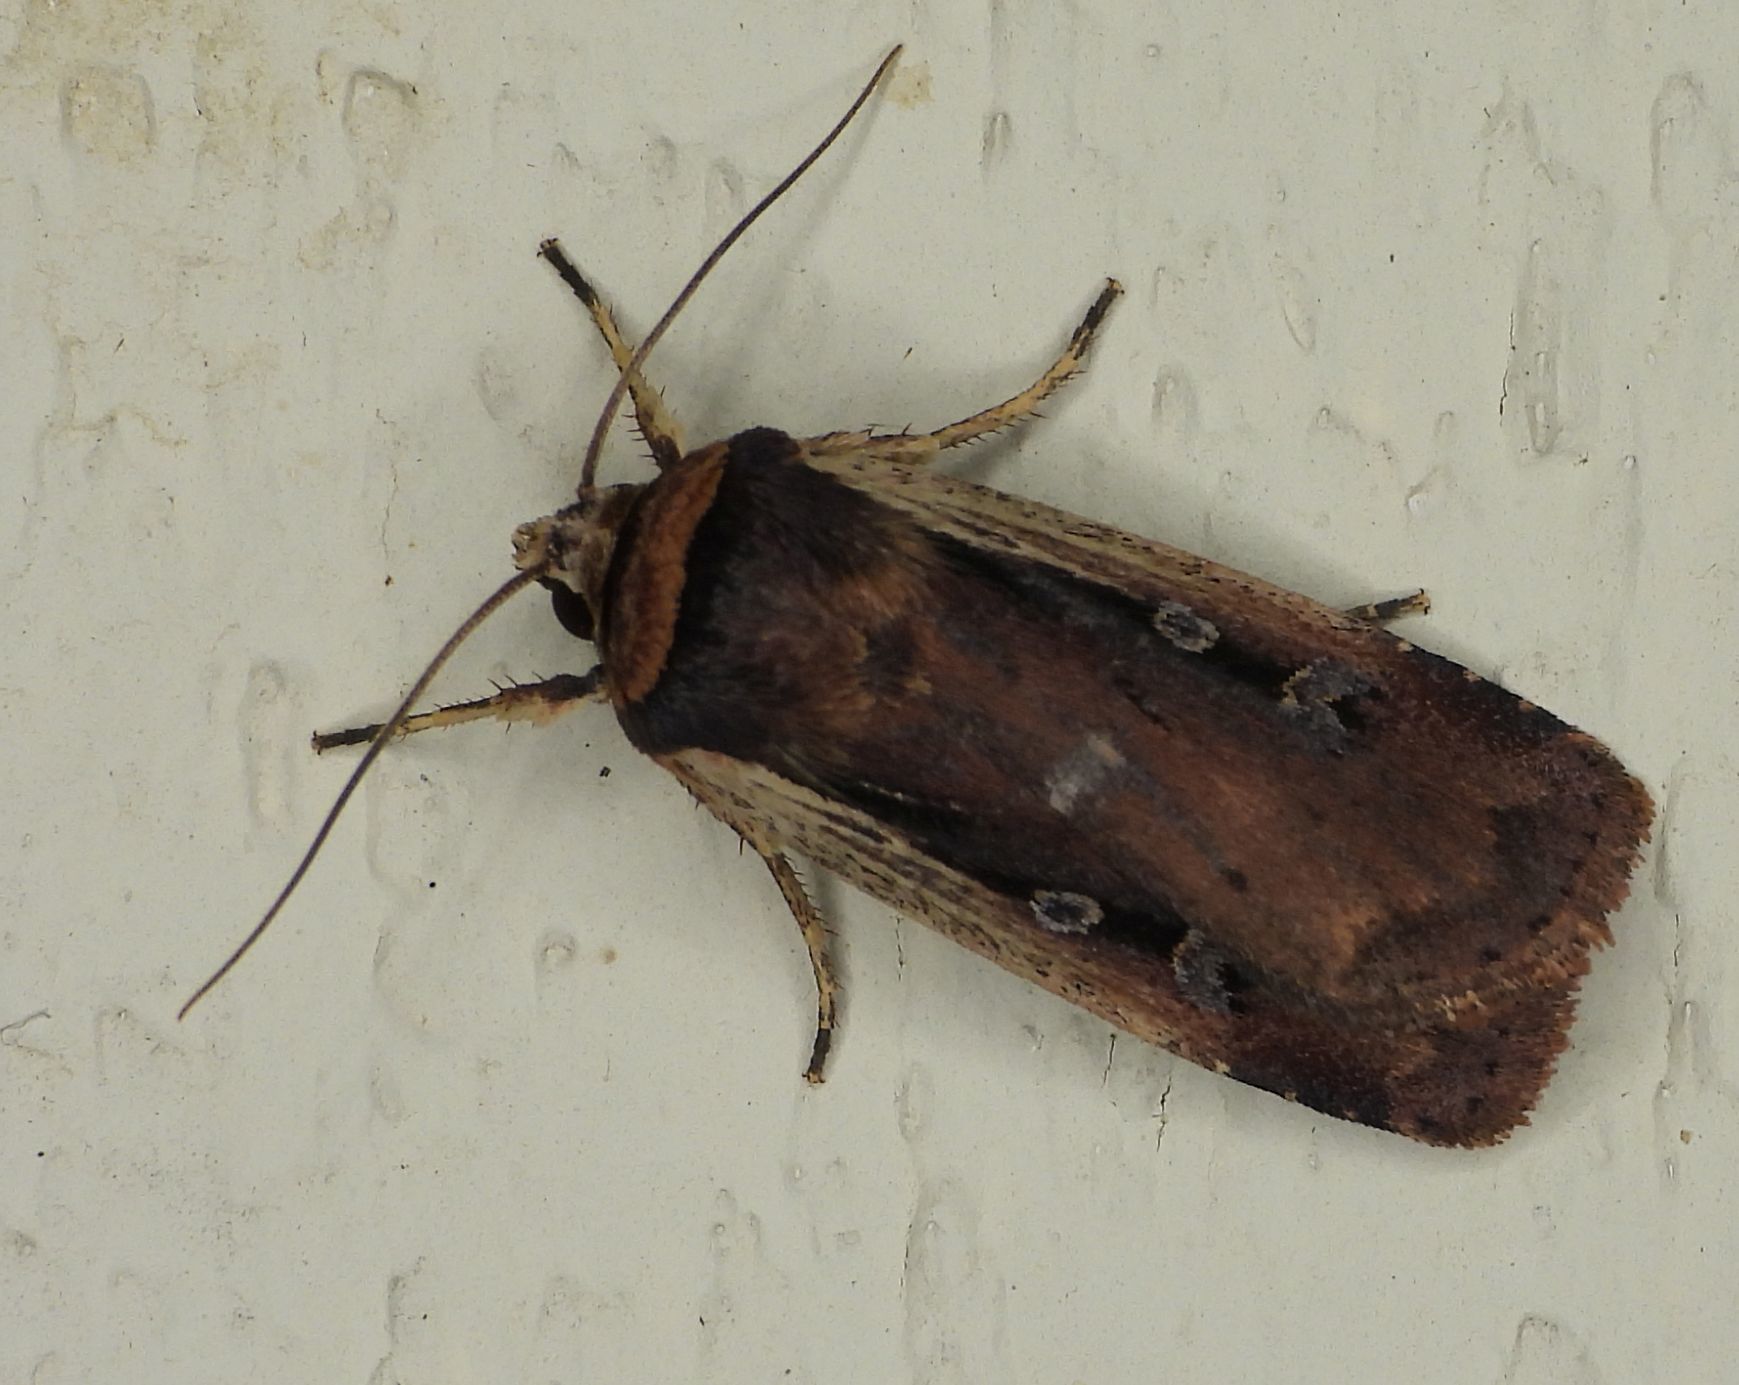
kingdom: Animalia
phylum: Arthropoda
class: Insecta
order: Lepidoptera
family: Noctuidae
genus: Ochropleura
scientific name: Ochropleura implecta
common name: Flame-shouldered dart
